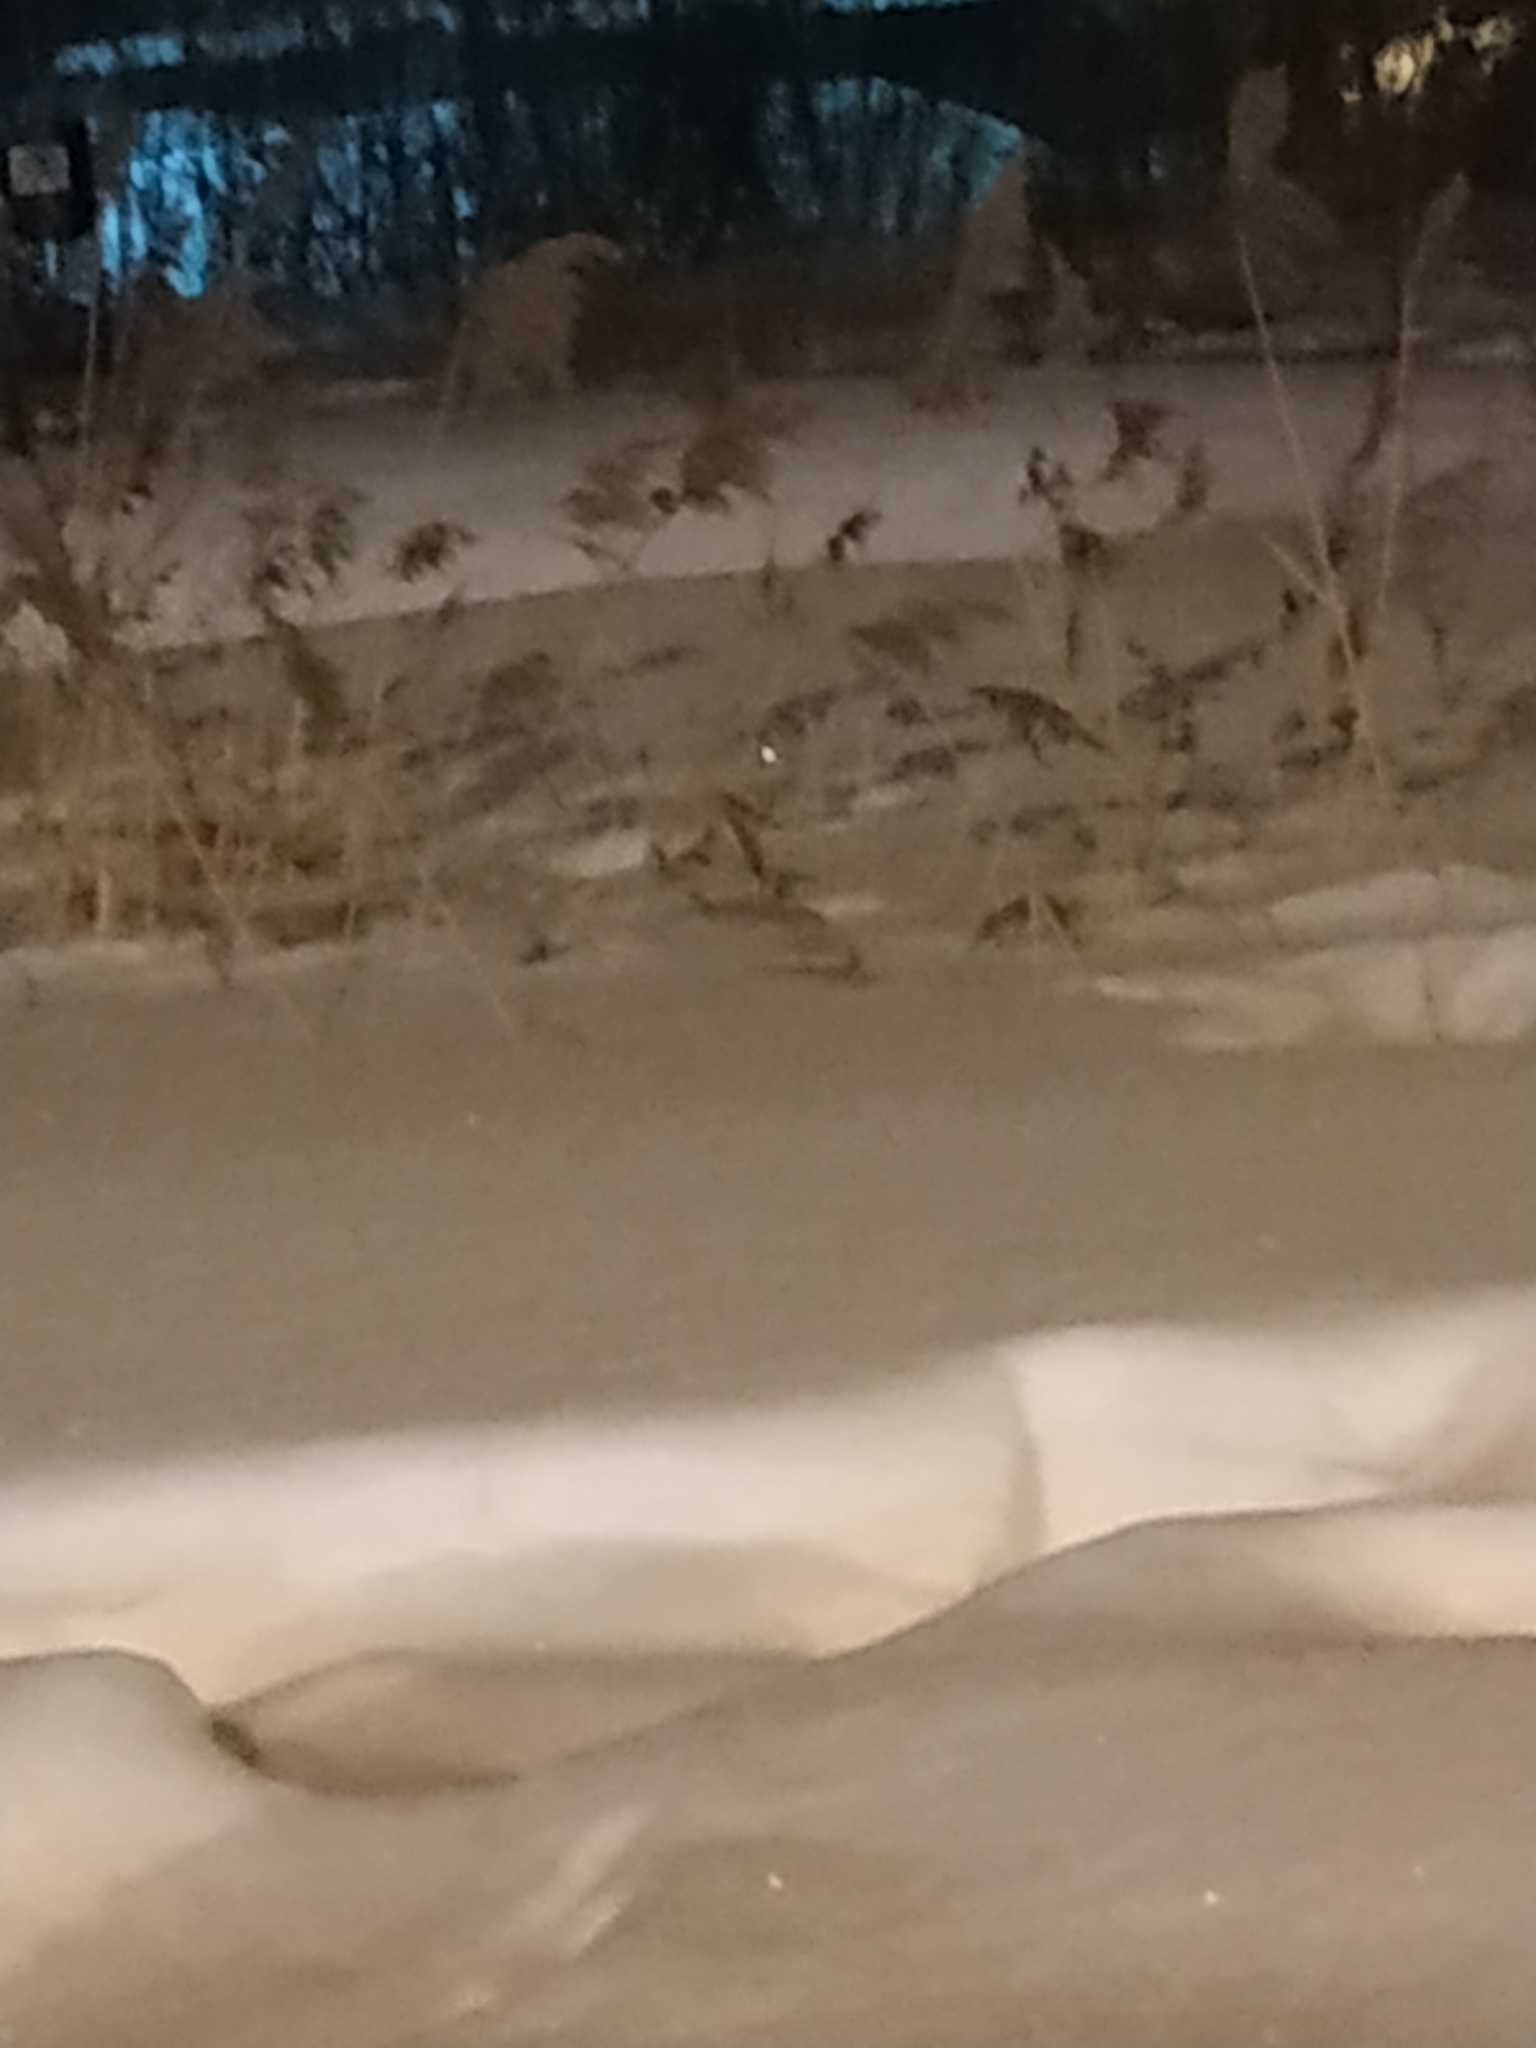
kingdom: Plantae
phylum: Tracheophyta
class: Liliopsida
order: Poales
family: Poaceae
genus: Phragmites
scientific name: Phragmites australis
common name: Common reed
